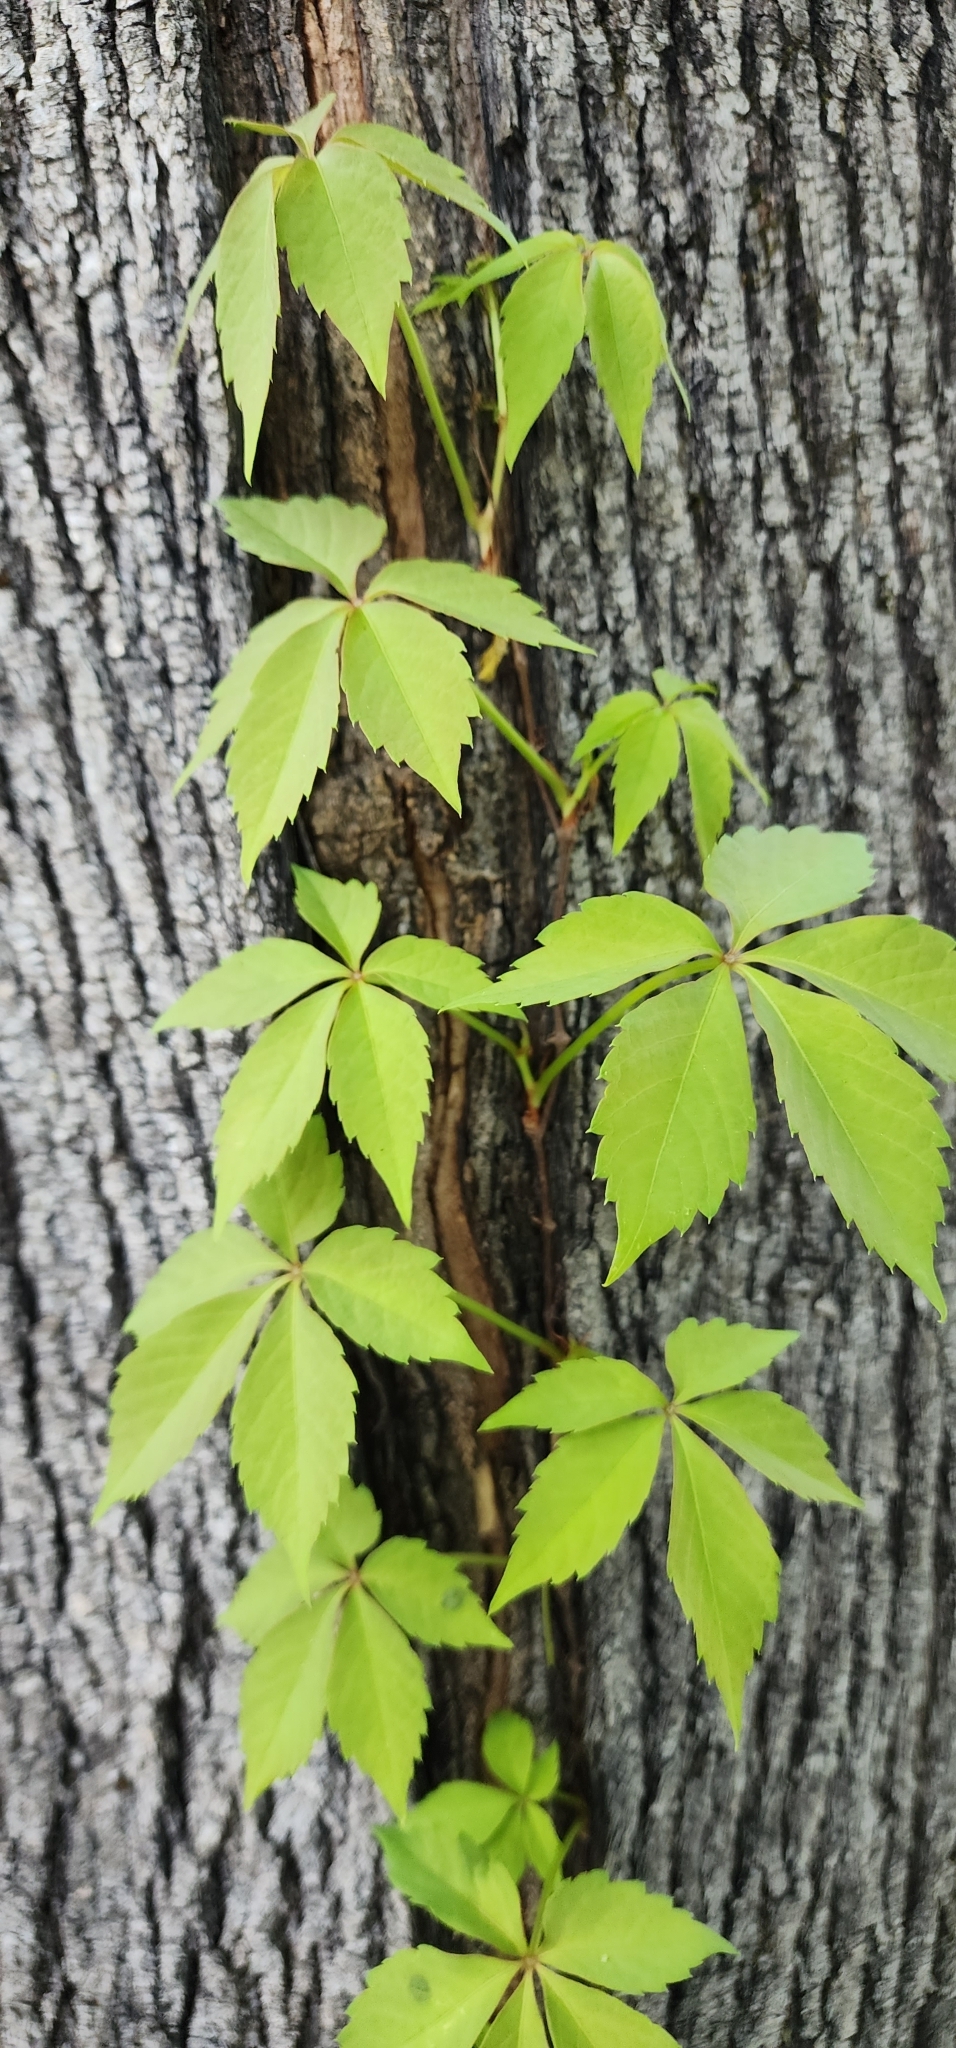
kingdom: Plantae
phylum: Tracheophyta
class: Magnoliopsida
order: Vitales
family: Vitaceae
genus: Parthenocissus
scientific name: Parthenocissus quinquefolia
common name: Virginia-creeper
